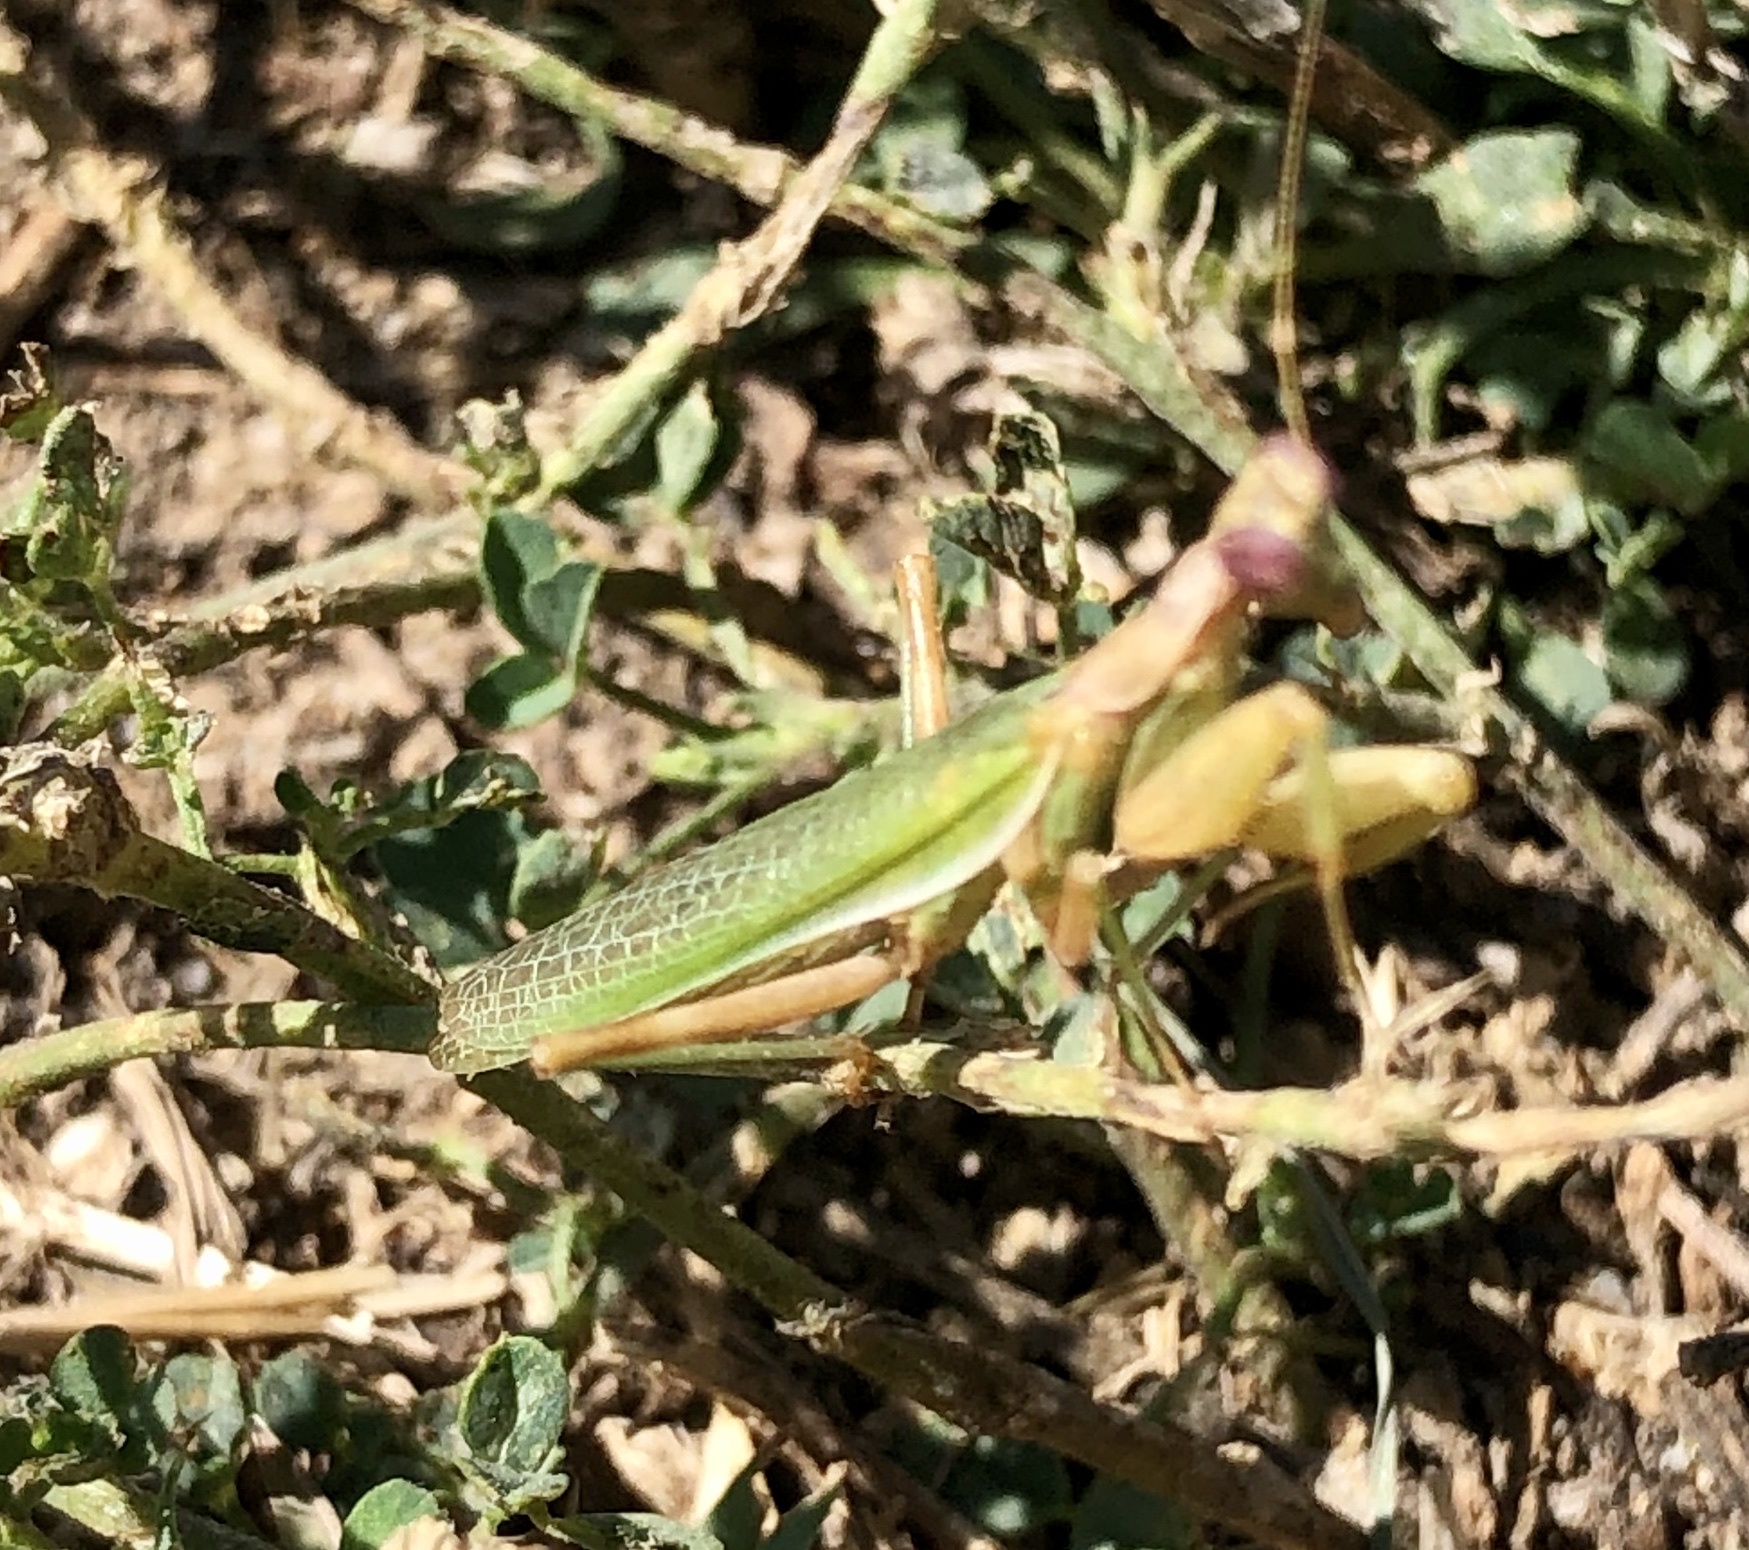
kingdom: Animalia
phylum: Arthropoda
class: Insecta
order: Mantodea
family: Amelidae
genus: Ameles
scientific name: Ameles spallanzania
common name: European dwarf mantis
